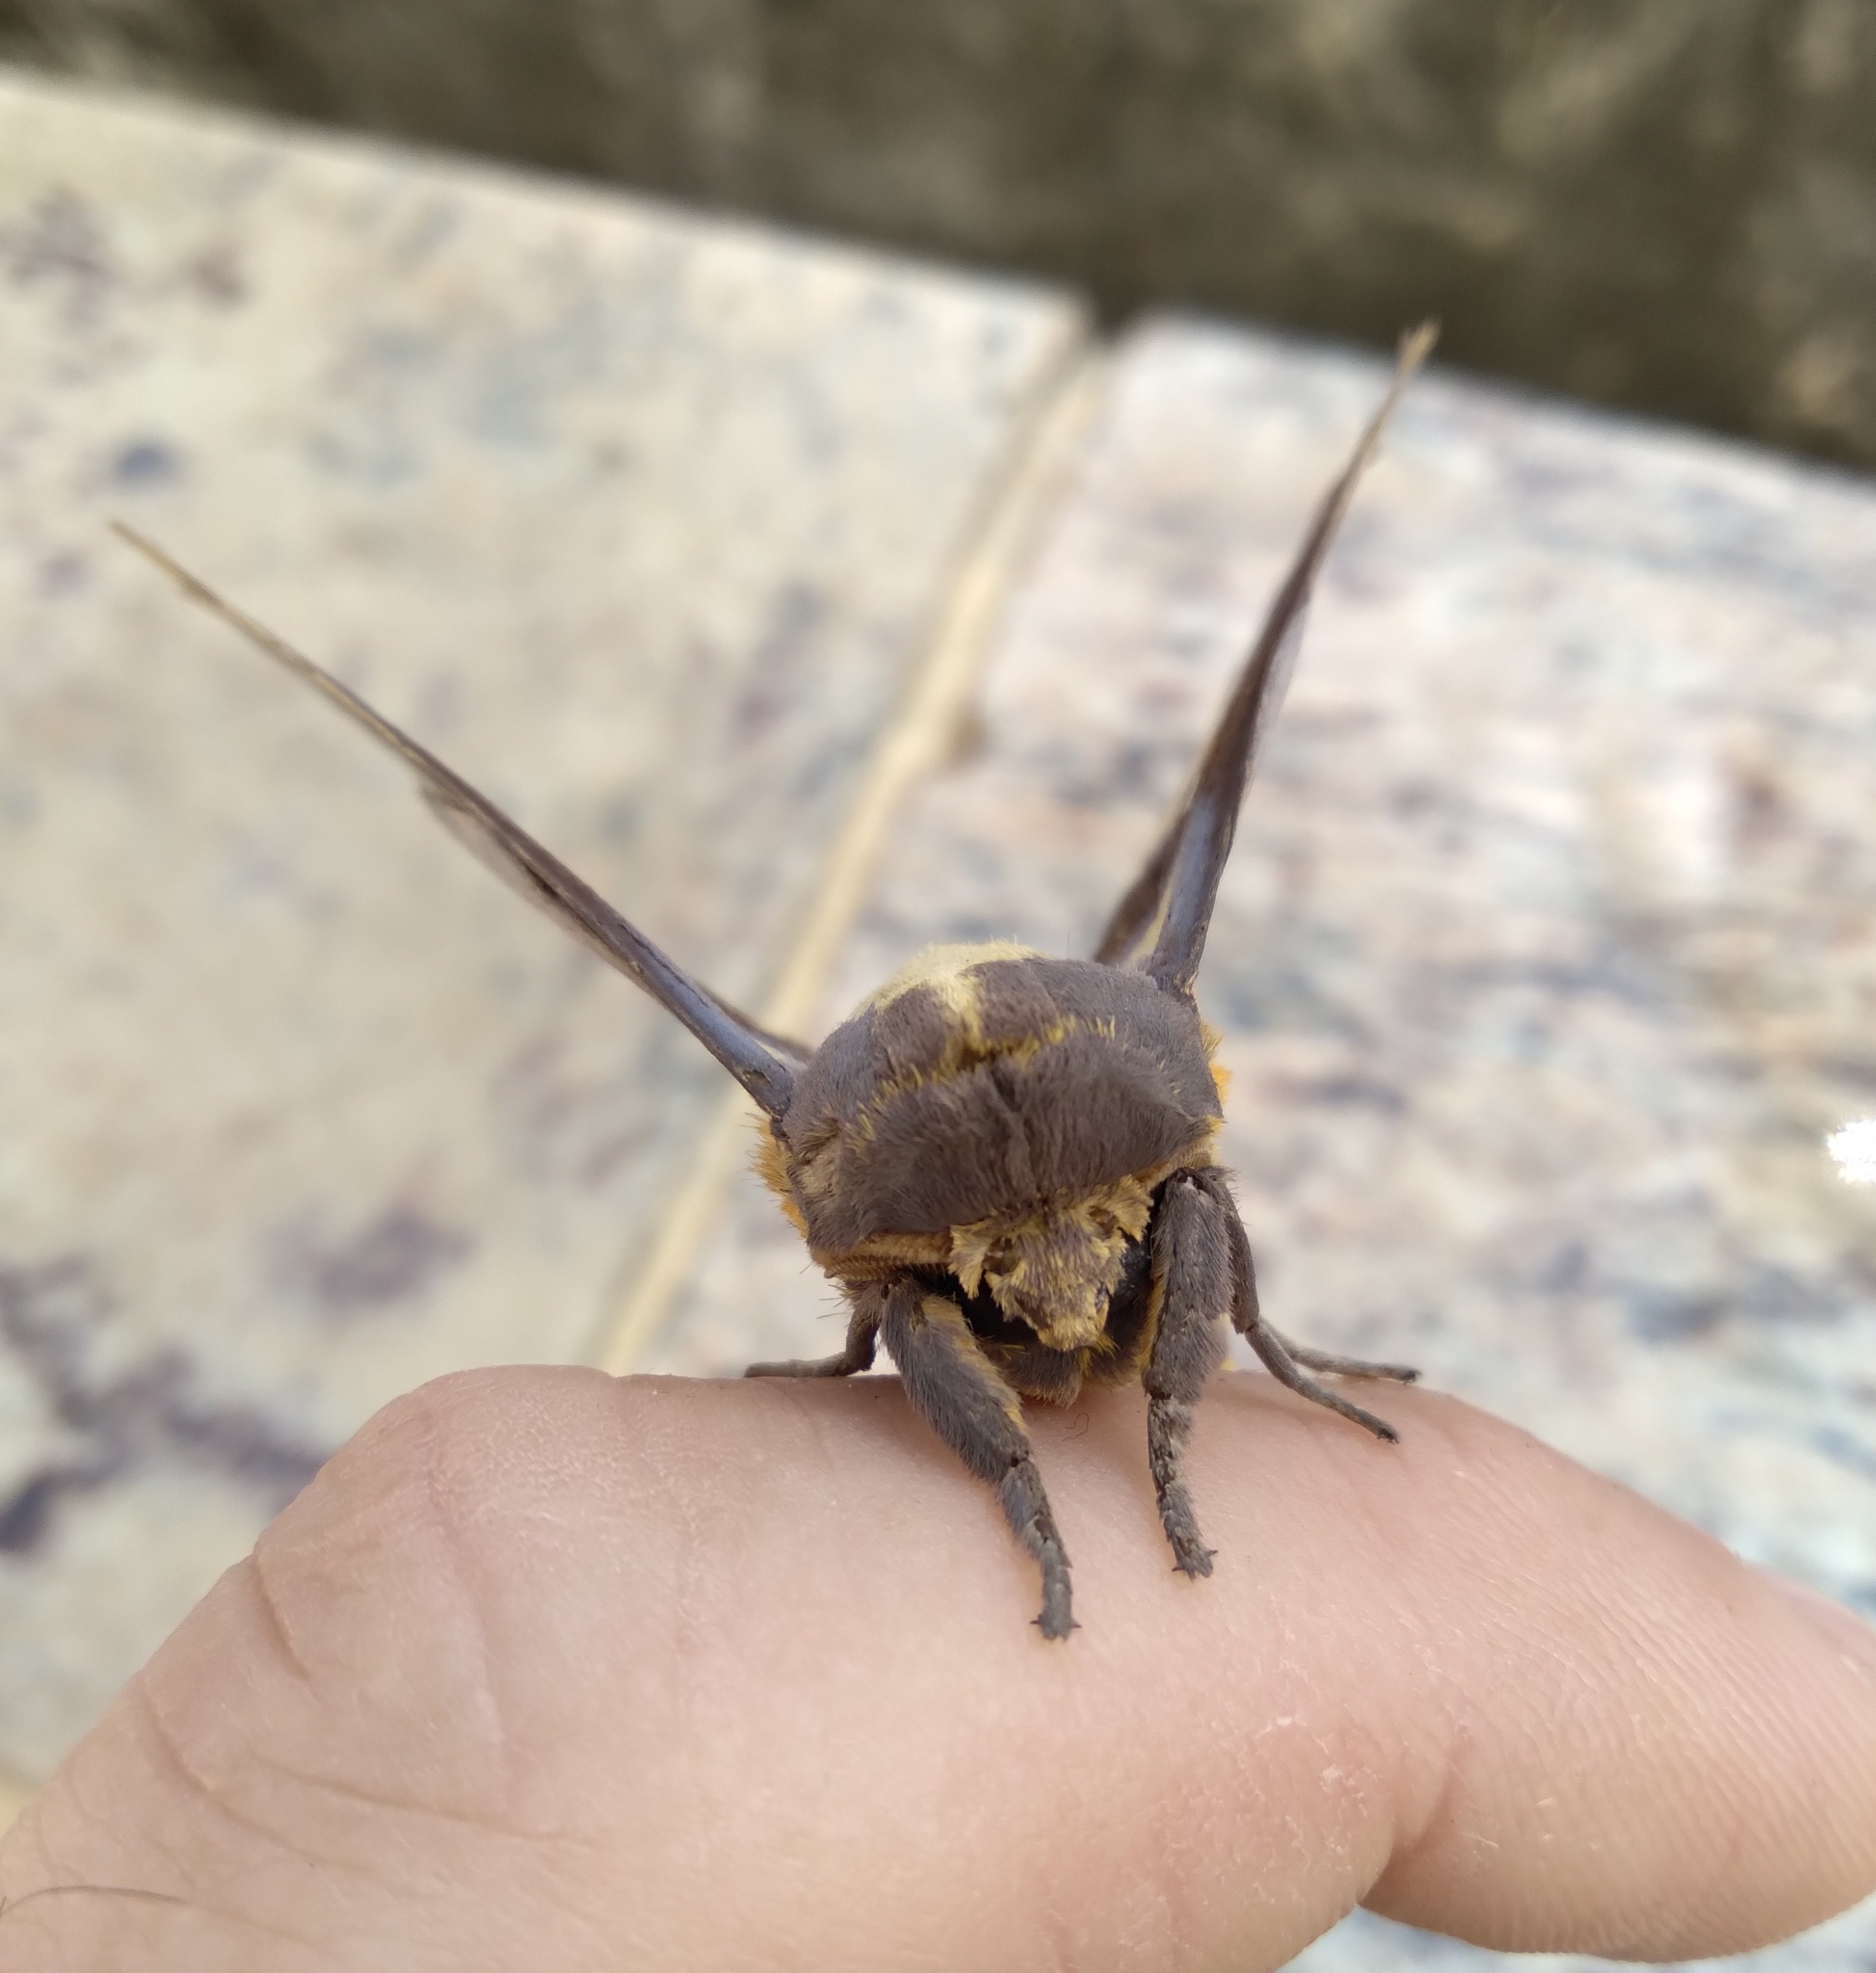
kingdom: Animalia
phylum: Arthropoda
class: Insecta
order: Lepidoptera
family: Saturniidae
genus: Adelowalkeria
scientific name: Adelowalkeria flavosignata
